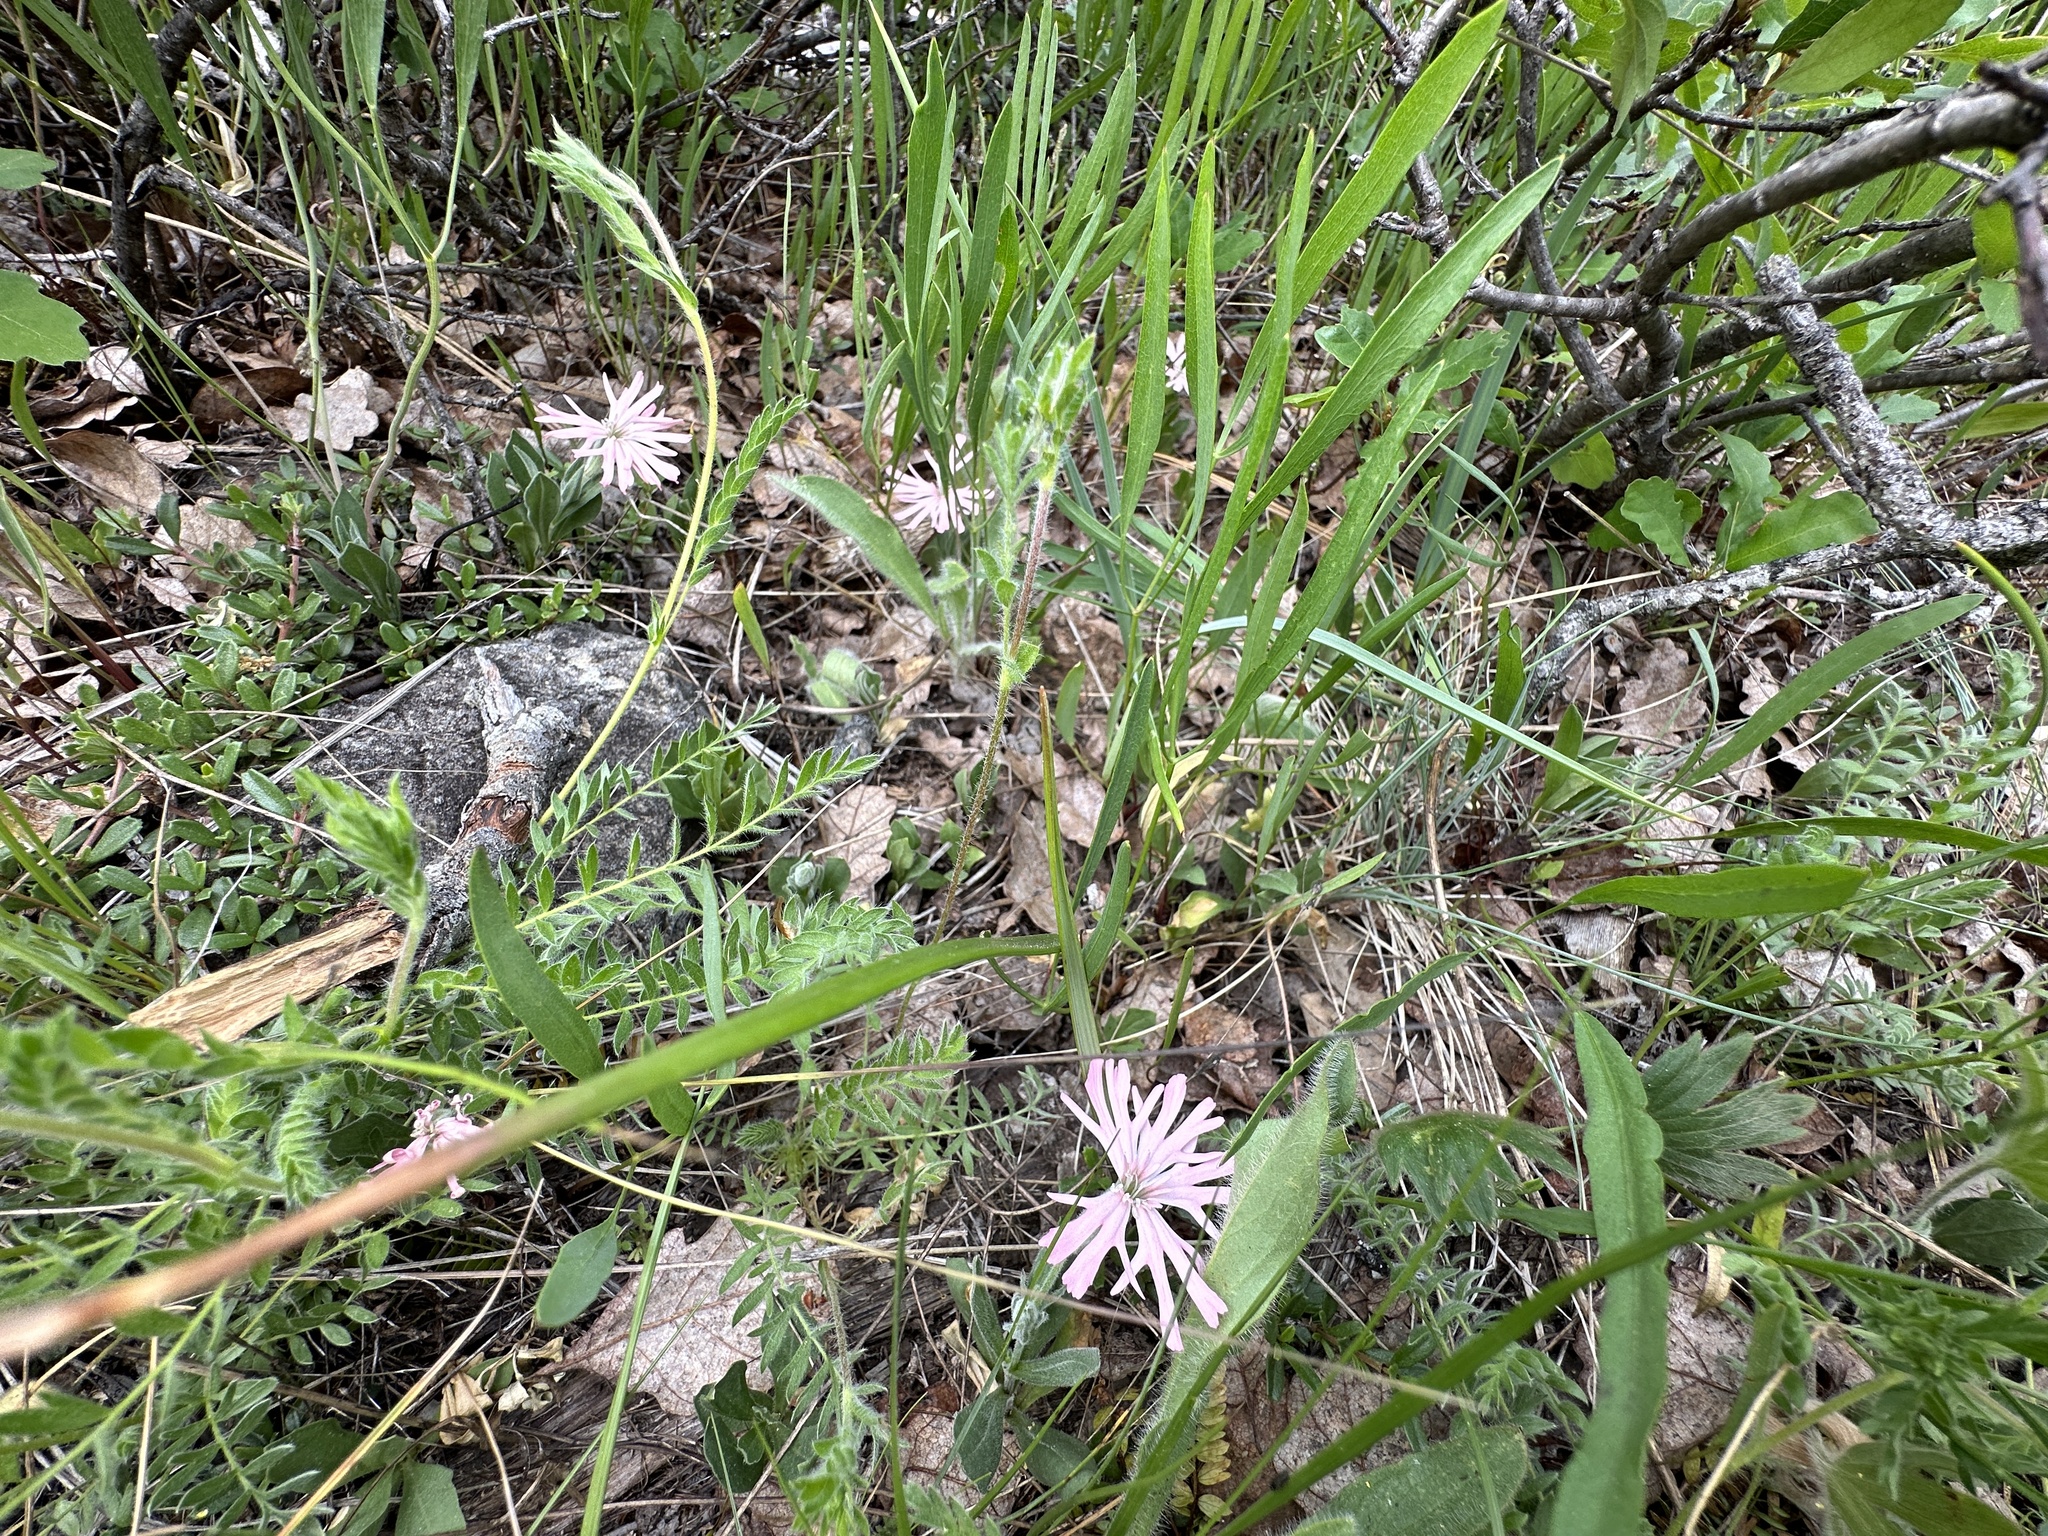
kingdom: Plantae
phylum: Tracheophyta
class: Magnoliopsida
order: Caryophyllales
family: Caryophyllaceae
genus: Silene
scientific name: Silene hookeri
